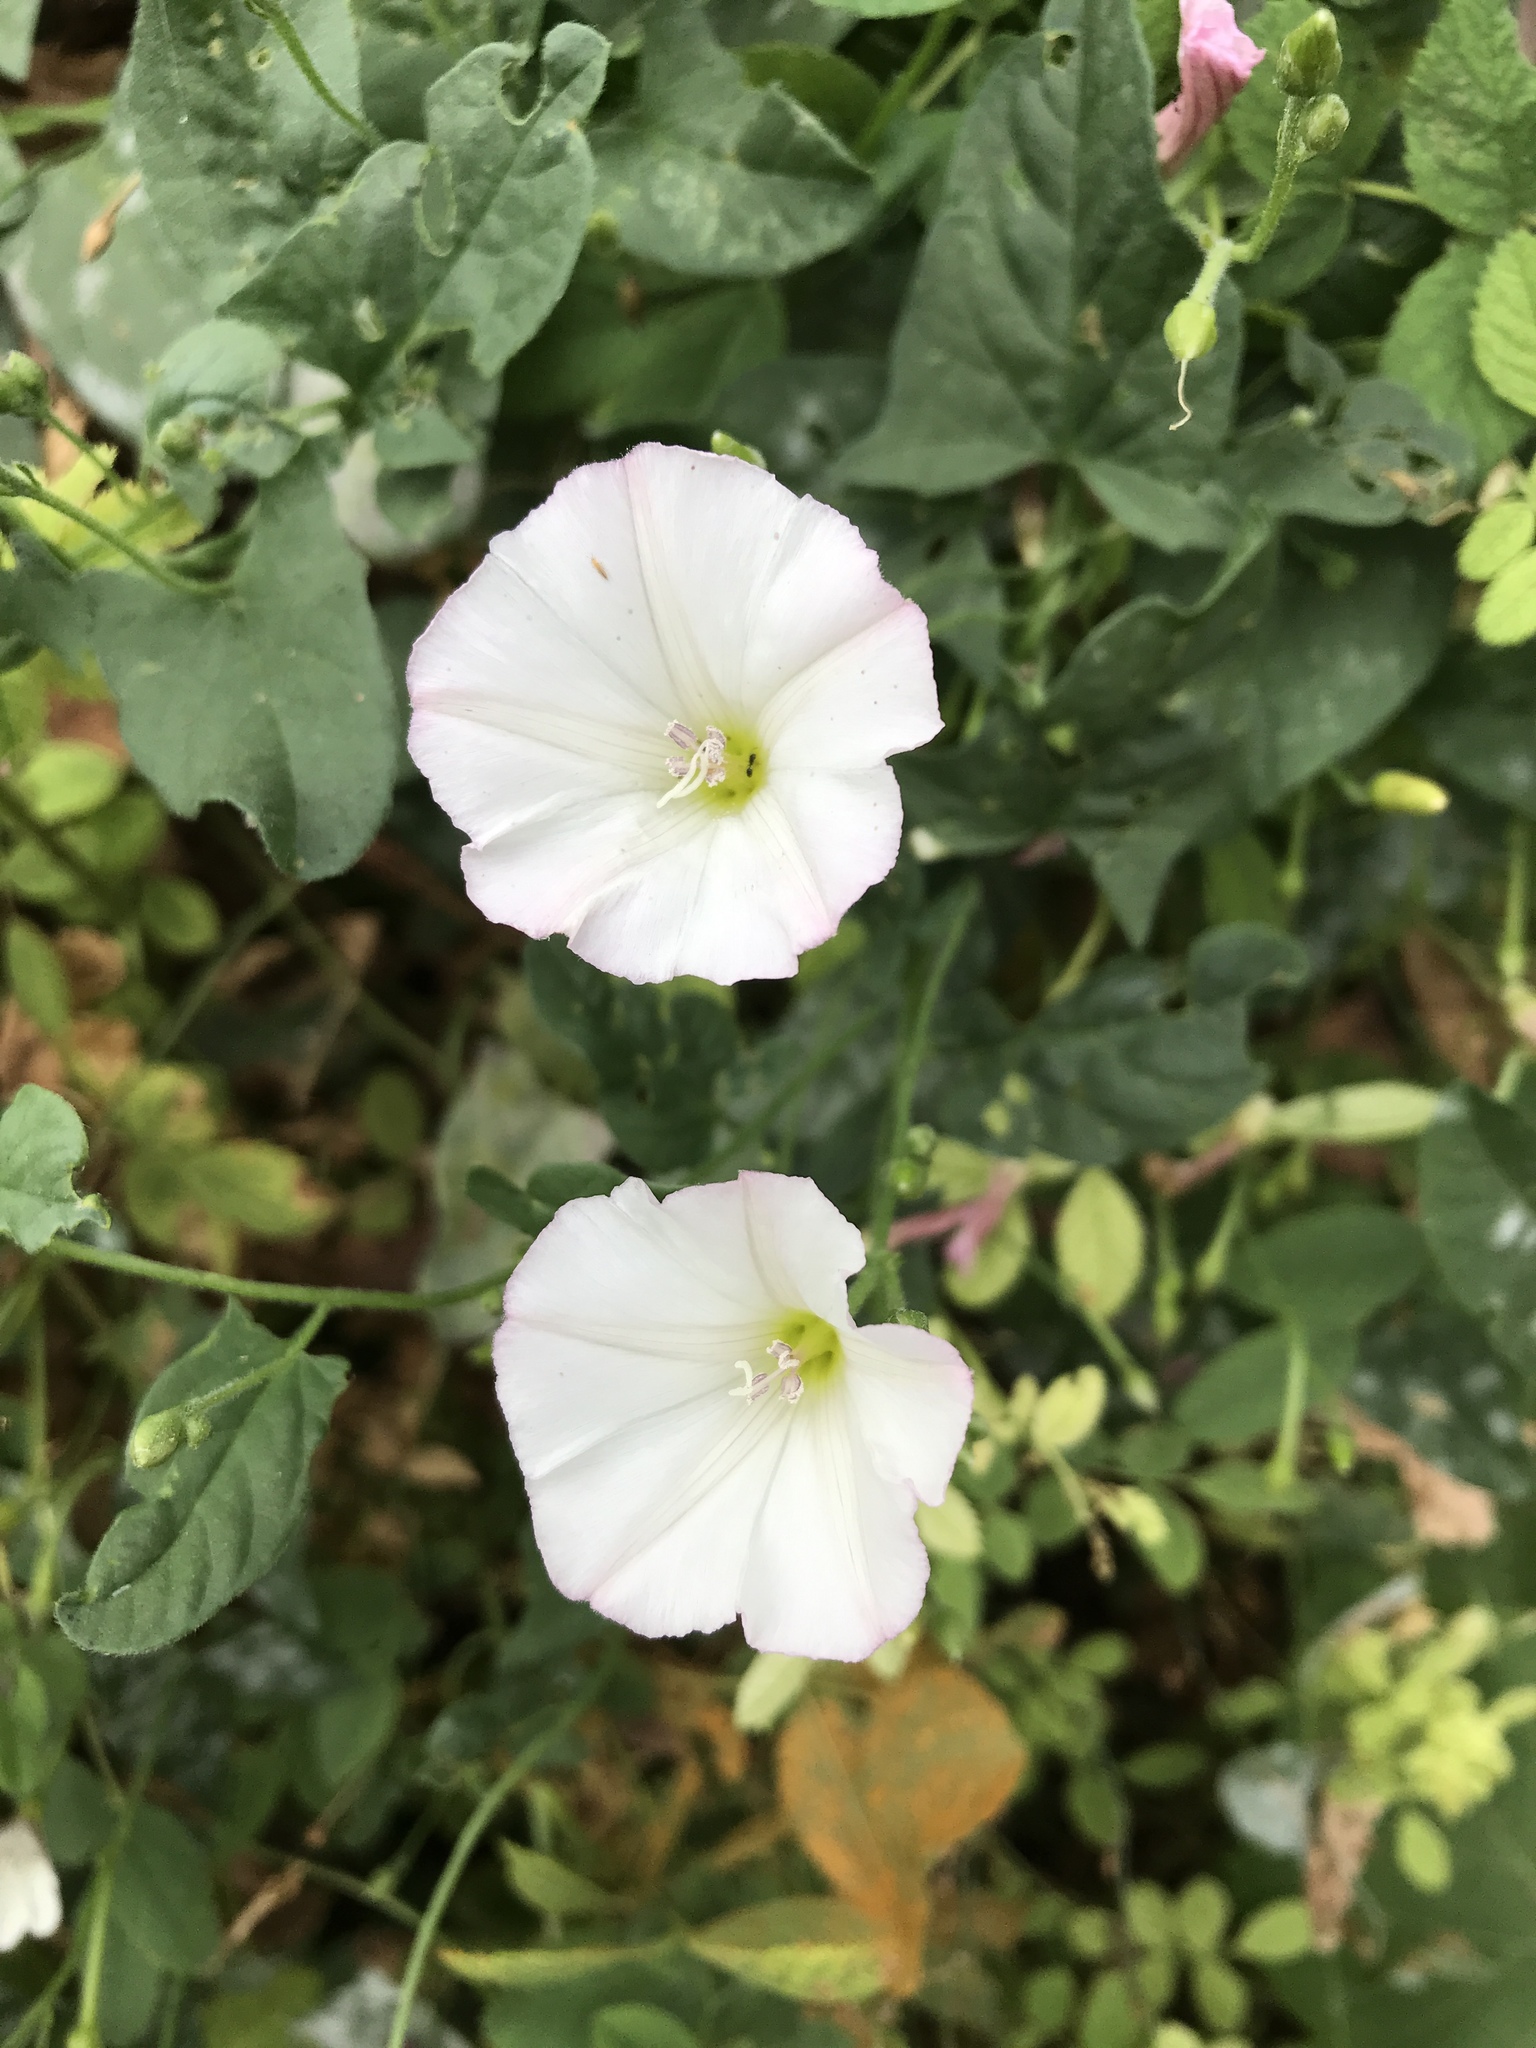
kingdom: Plantae
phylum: Tracheophyta
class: Magnoliopsida
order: Solanales
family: Convolvulaceae
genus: Convolvulus
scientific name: Convolvulus arvensis
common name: Field bindweed
